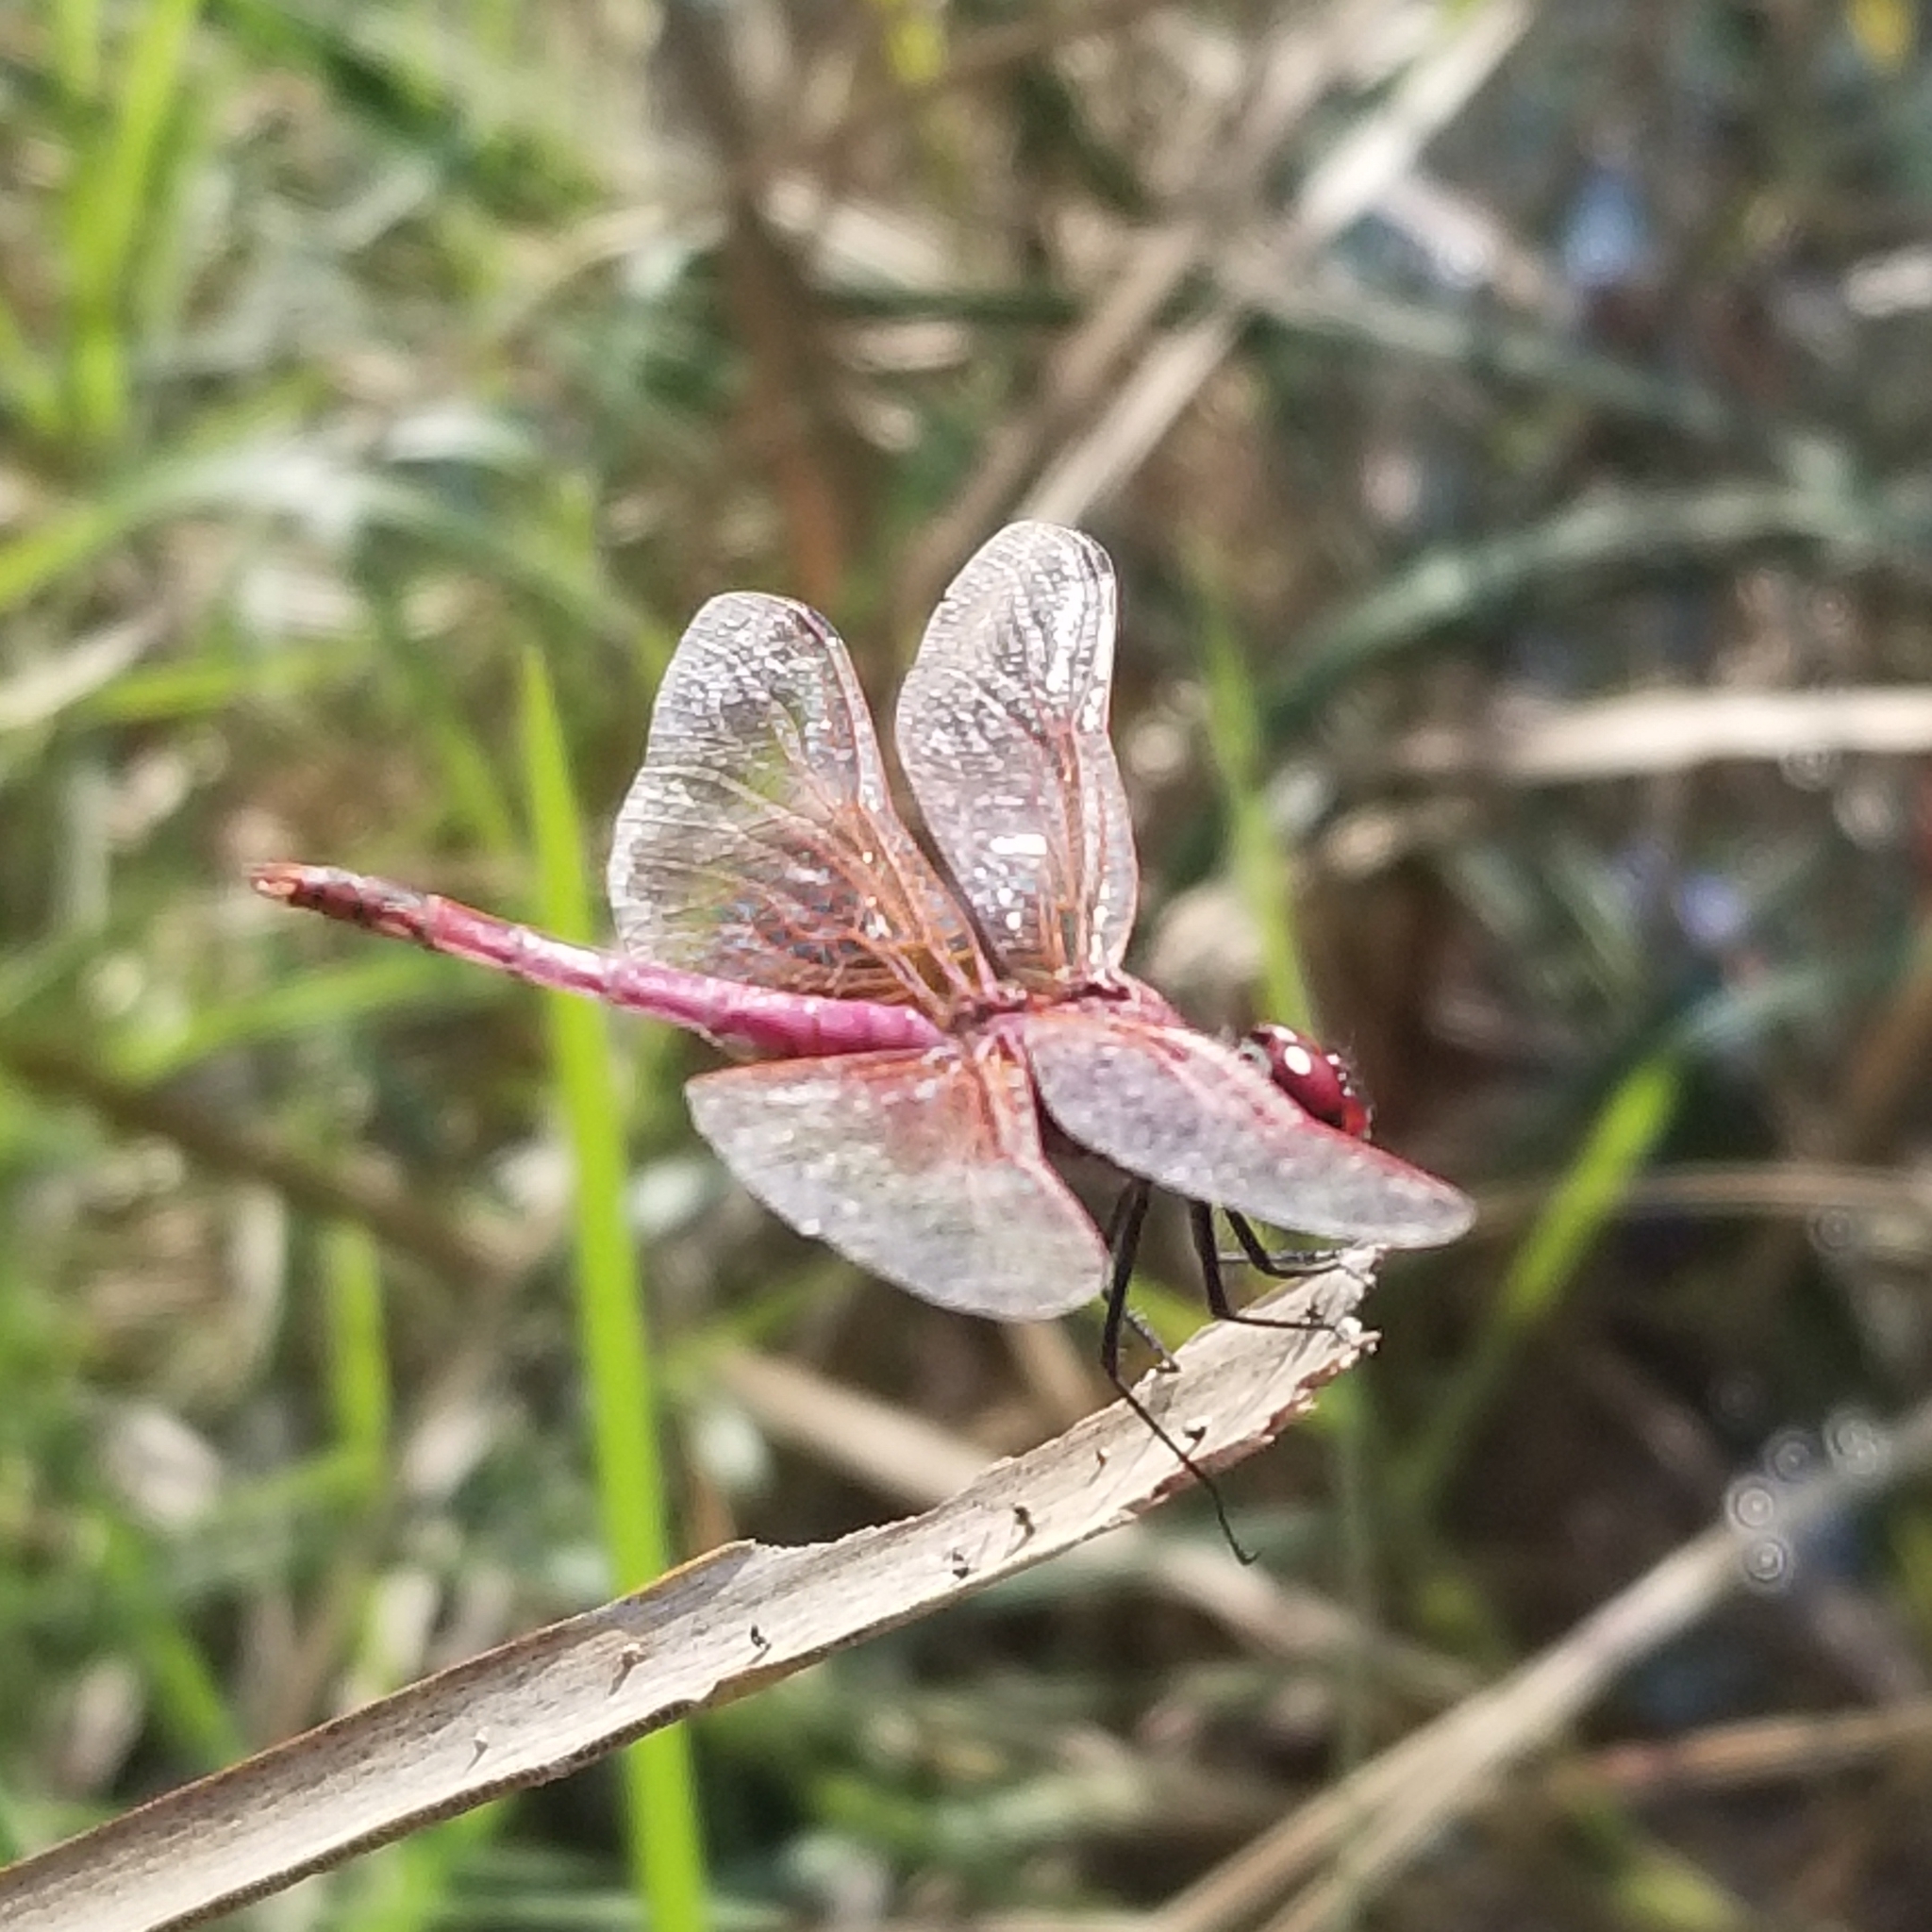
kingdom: Animalia
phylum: Arthropoda
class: Insecta
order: Odonata
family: Libellulidae
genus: Trithemis
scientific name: Trithemis annulata
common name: Violet dropwing
